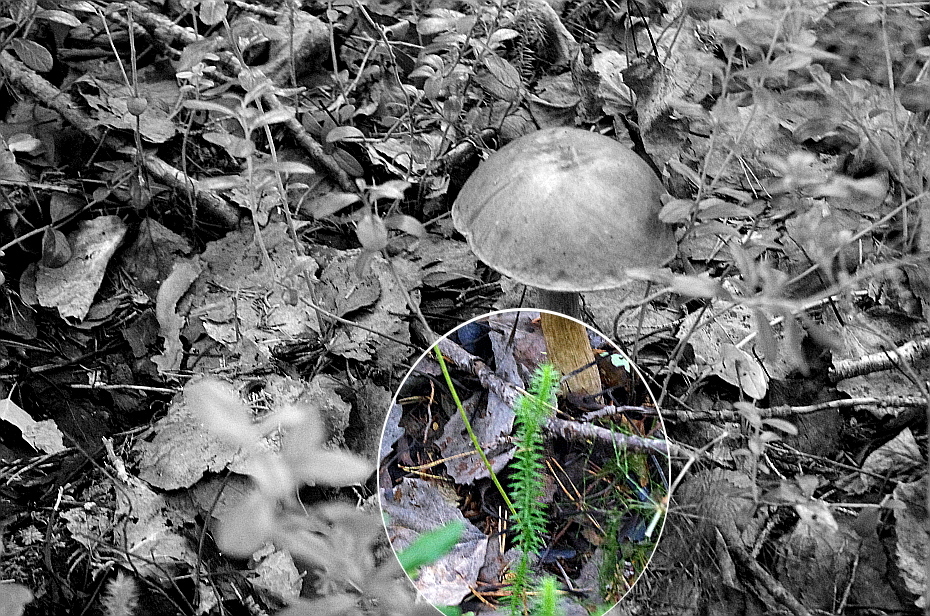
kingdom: Plantae
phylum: Tracheophyta
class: Lycopodiopsida
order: Lycopodiales
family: Lycopodiaceae
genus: Spinulum
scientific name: Spinulum annotinum
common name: Interrupted club-moss
